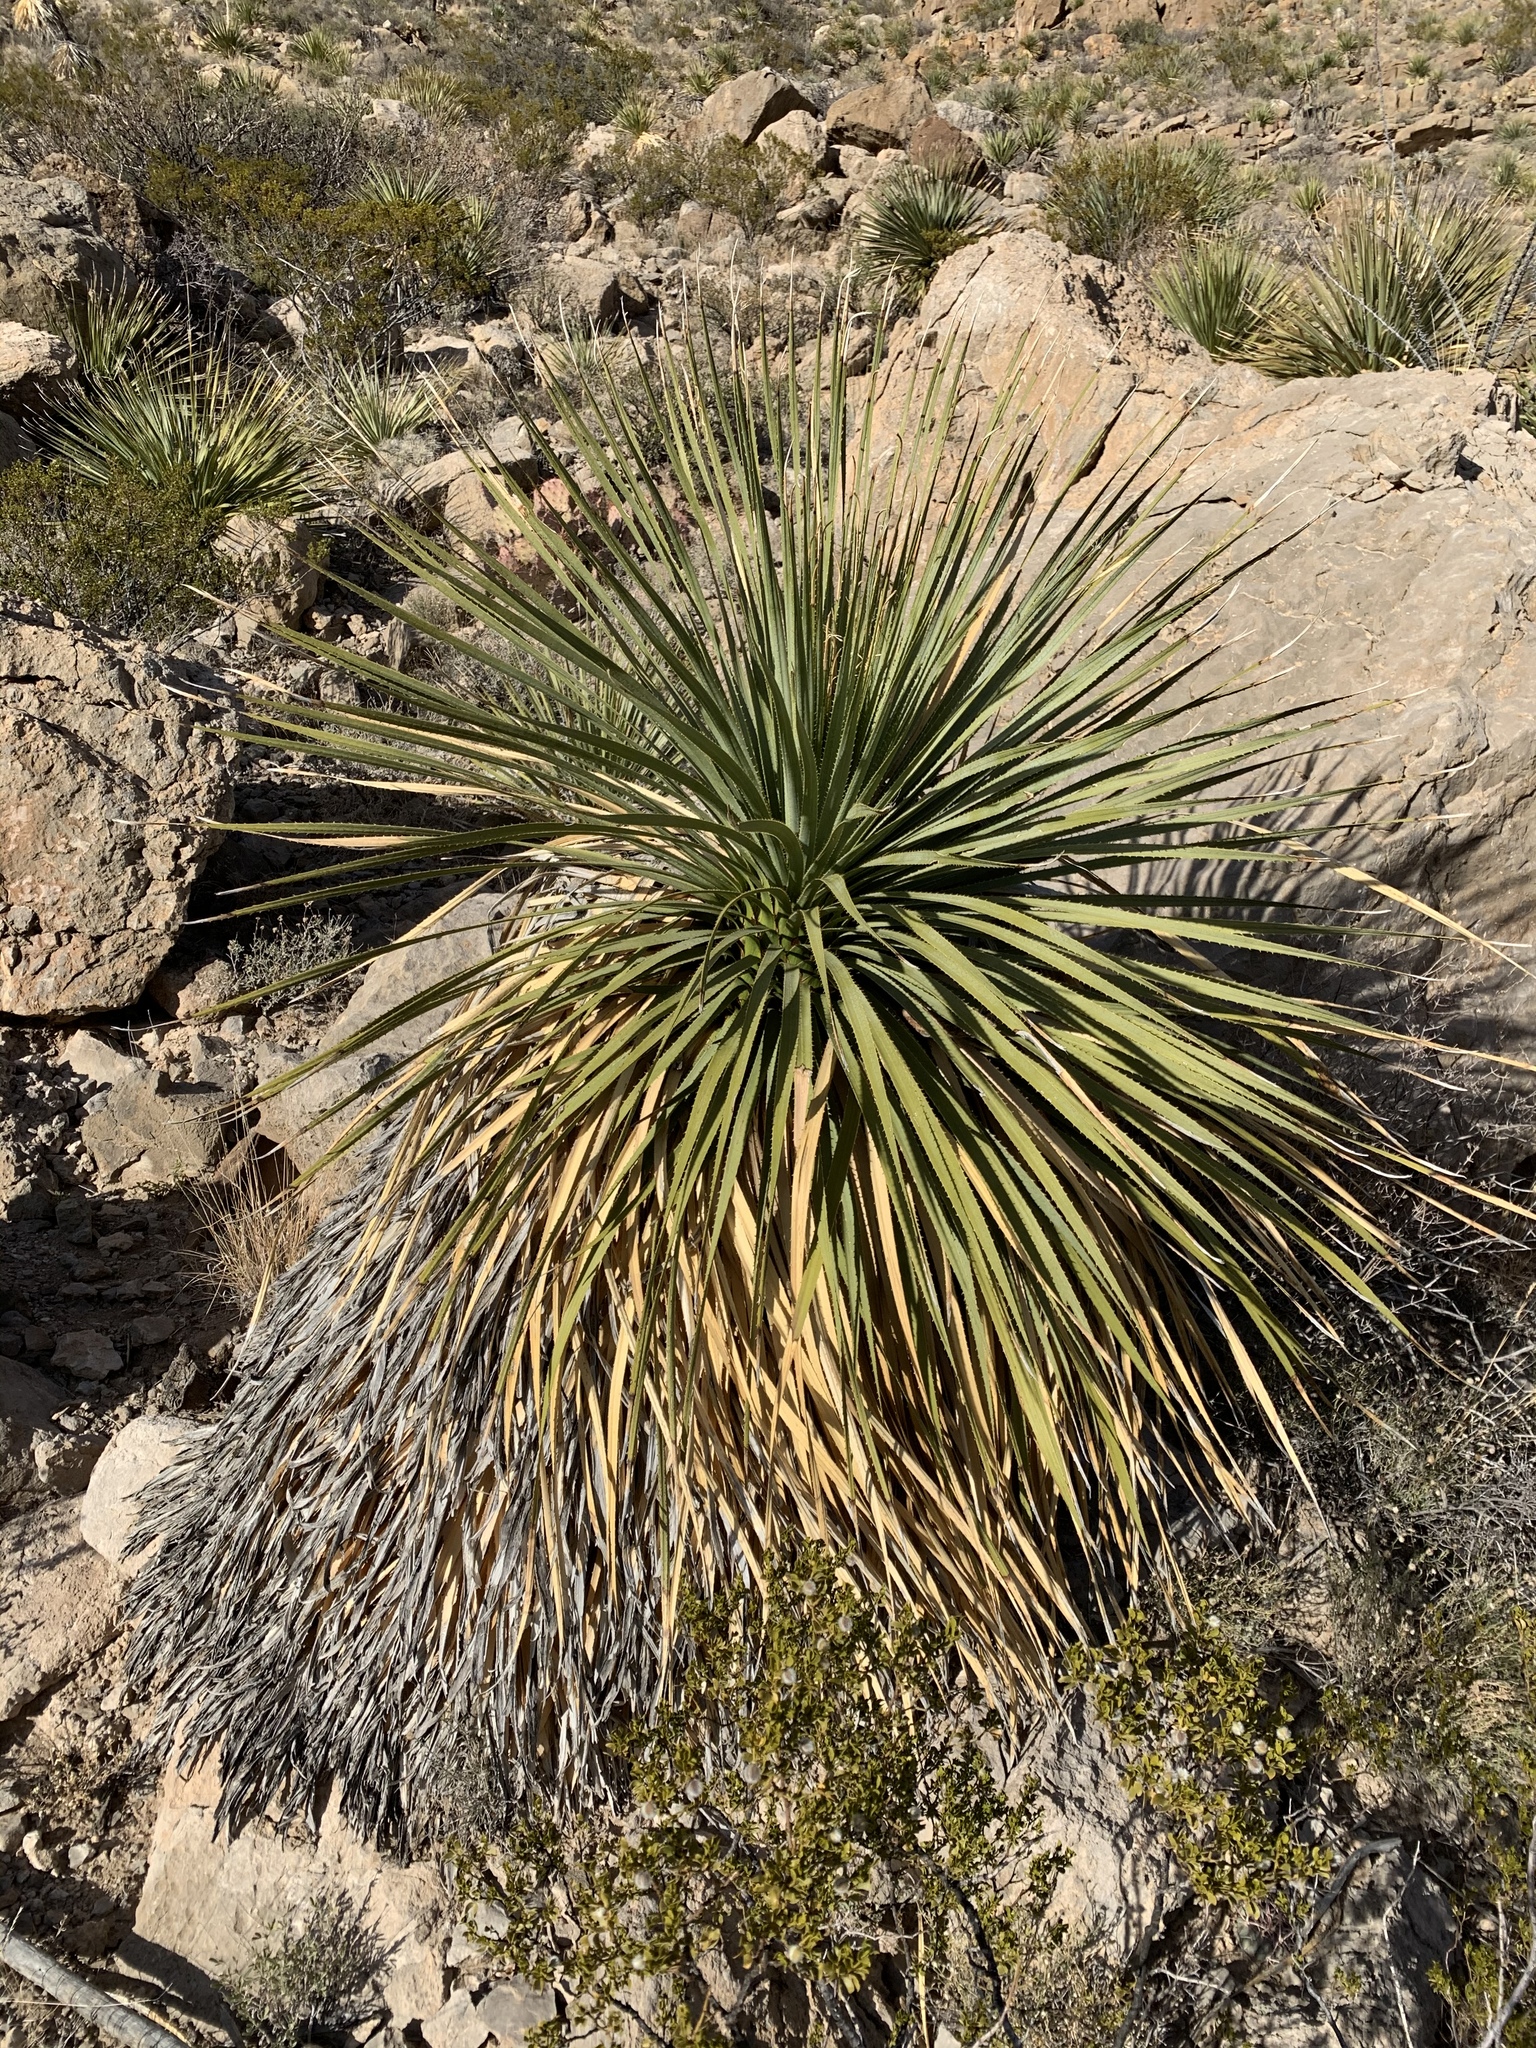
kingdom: Plantae
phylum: Tracheophyta
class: Liliopsida
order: Asparagales
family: Asparagaceae
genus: Dasylirion
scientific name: Dasylirion wheeleri
